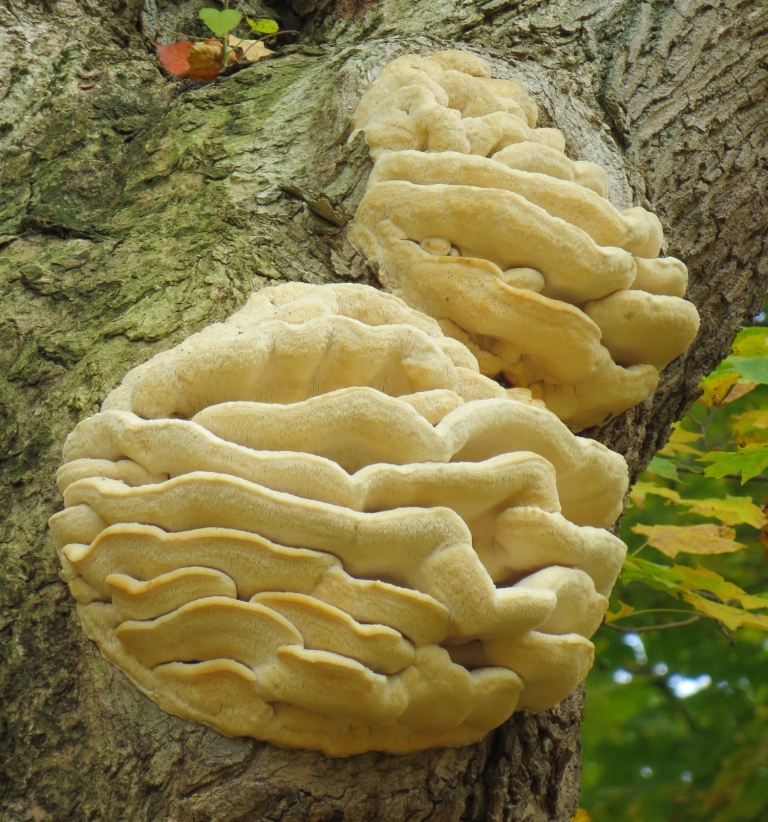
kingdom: Fungi
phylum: Basidiomycota
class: Agaricomycetes
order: Polyporales
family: Meruliaceae
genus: Climacodon
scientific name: Climacodon septentrionalis
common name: Northern tooth
